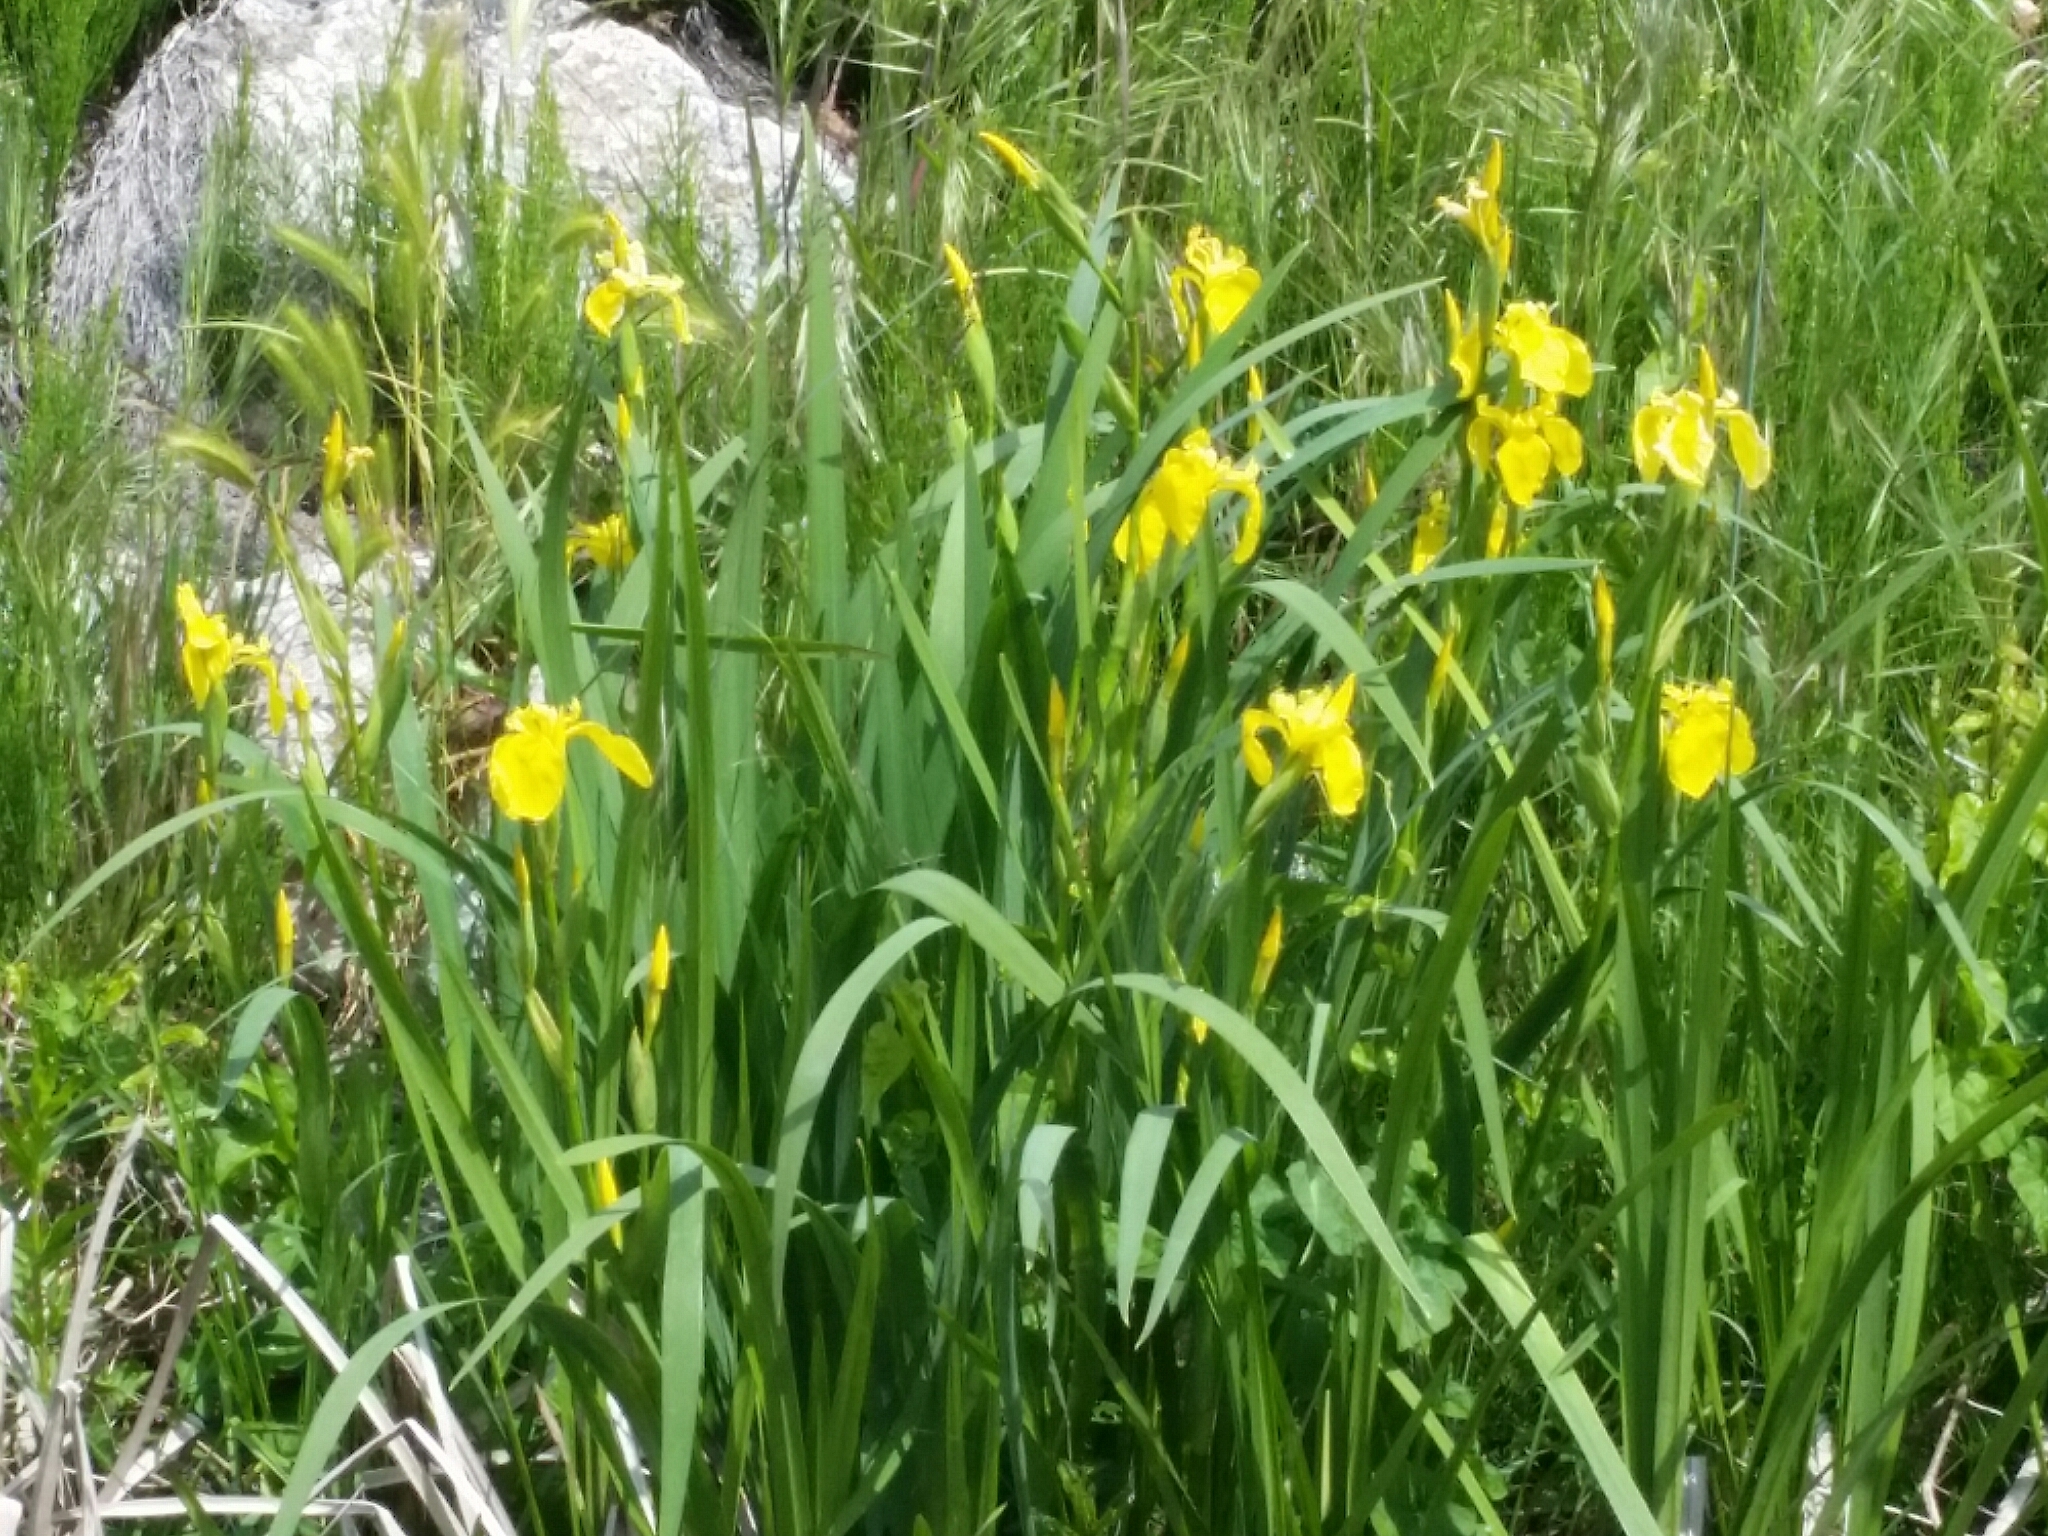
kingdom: Plantae
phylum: Tracheophyta
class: Liliopsida
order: Asparagales
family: Iridaceae
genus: Iris
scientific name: Iris pseudacorus
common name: Yellow flag
